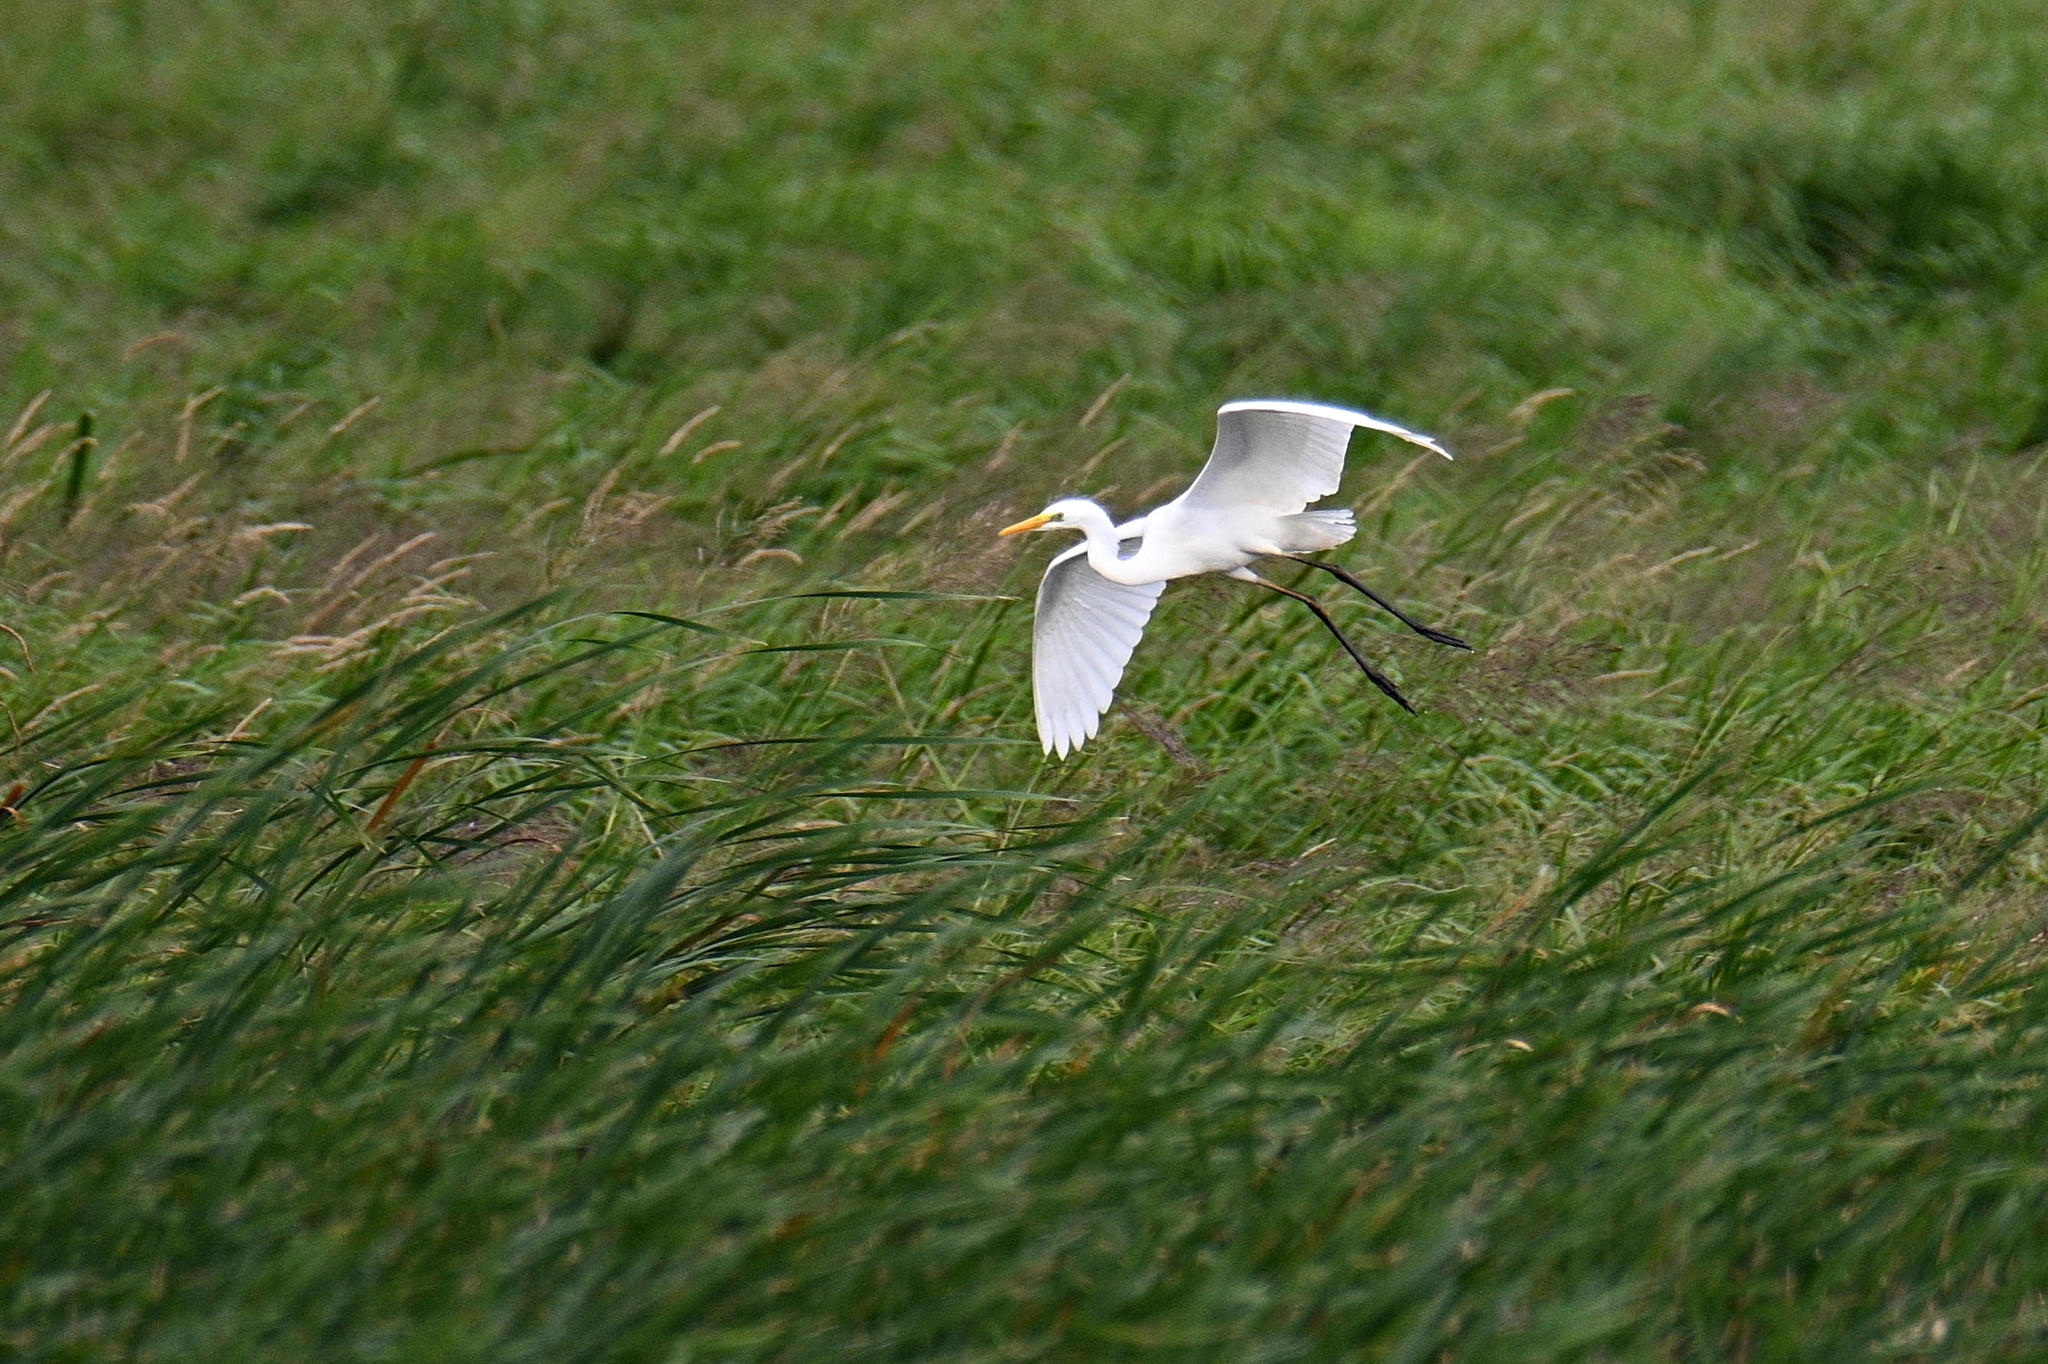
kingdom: Animalia
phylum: Chordata
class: Aves
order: Pelecaniformes
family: Ardeidae
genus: Ardea
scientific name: Ardea alba
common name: Great egret
